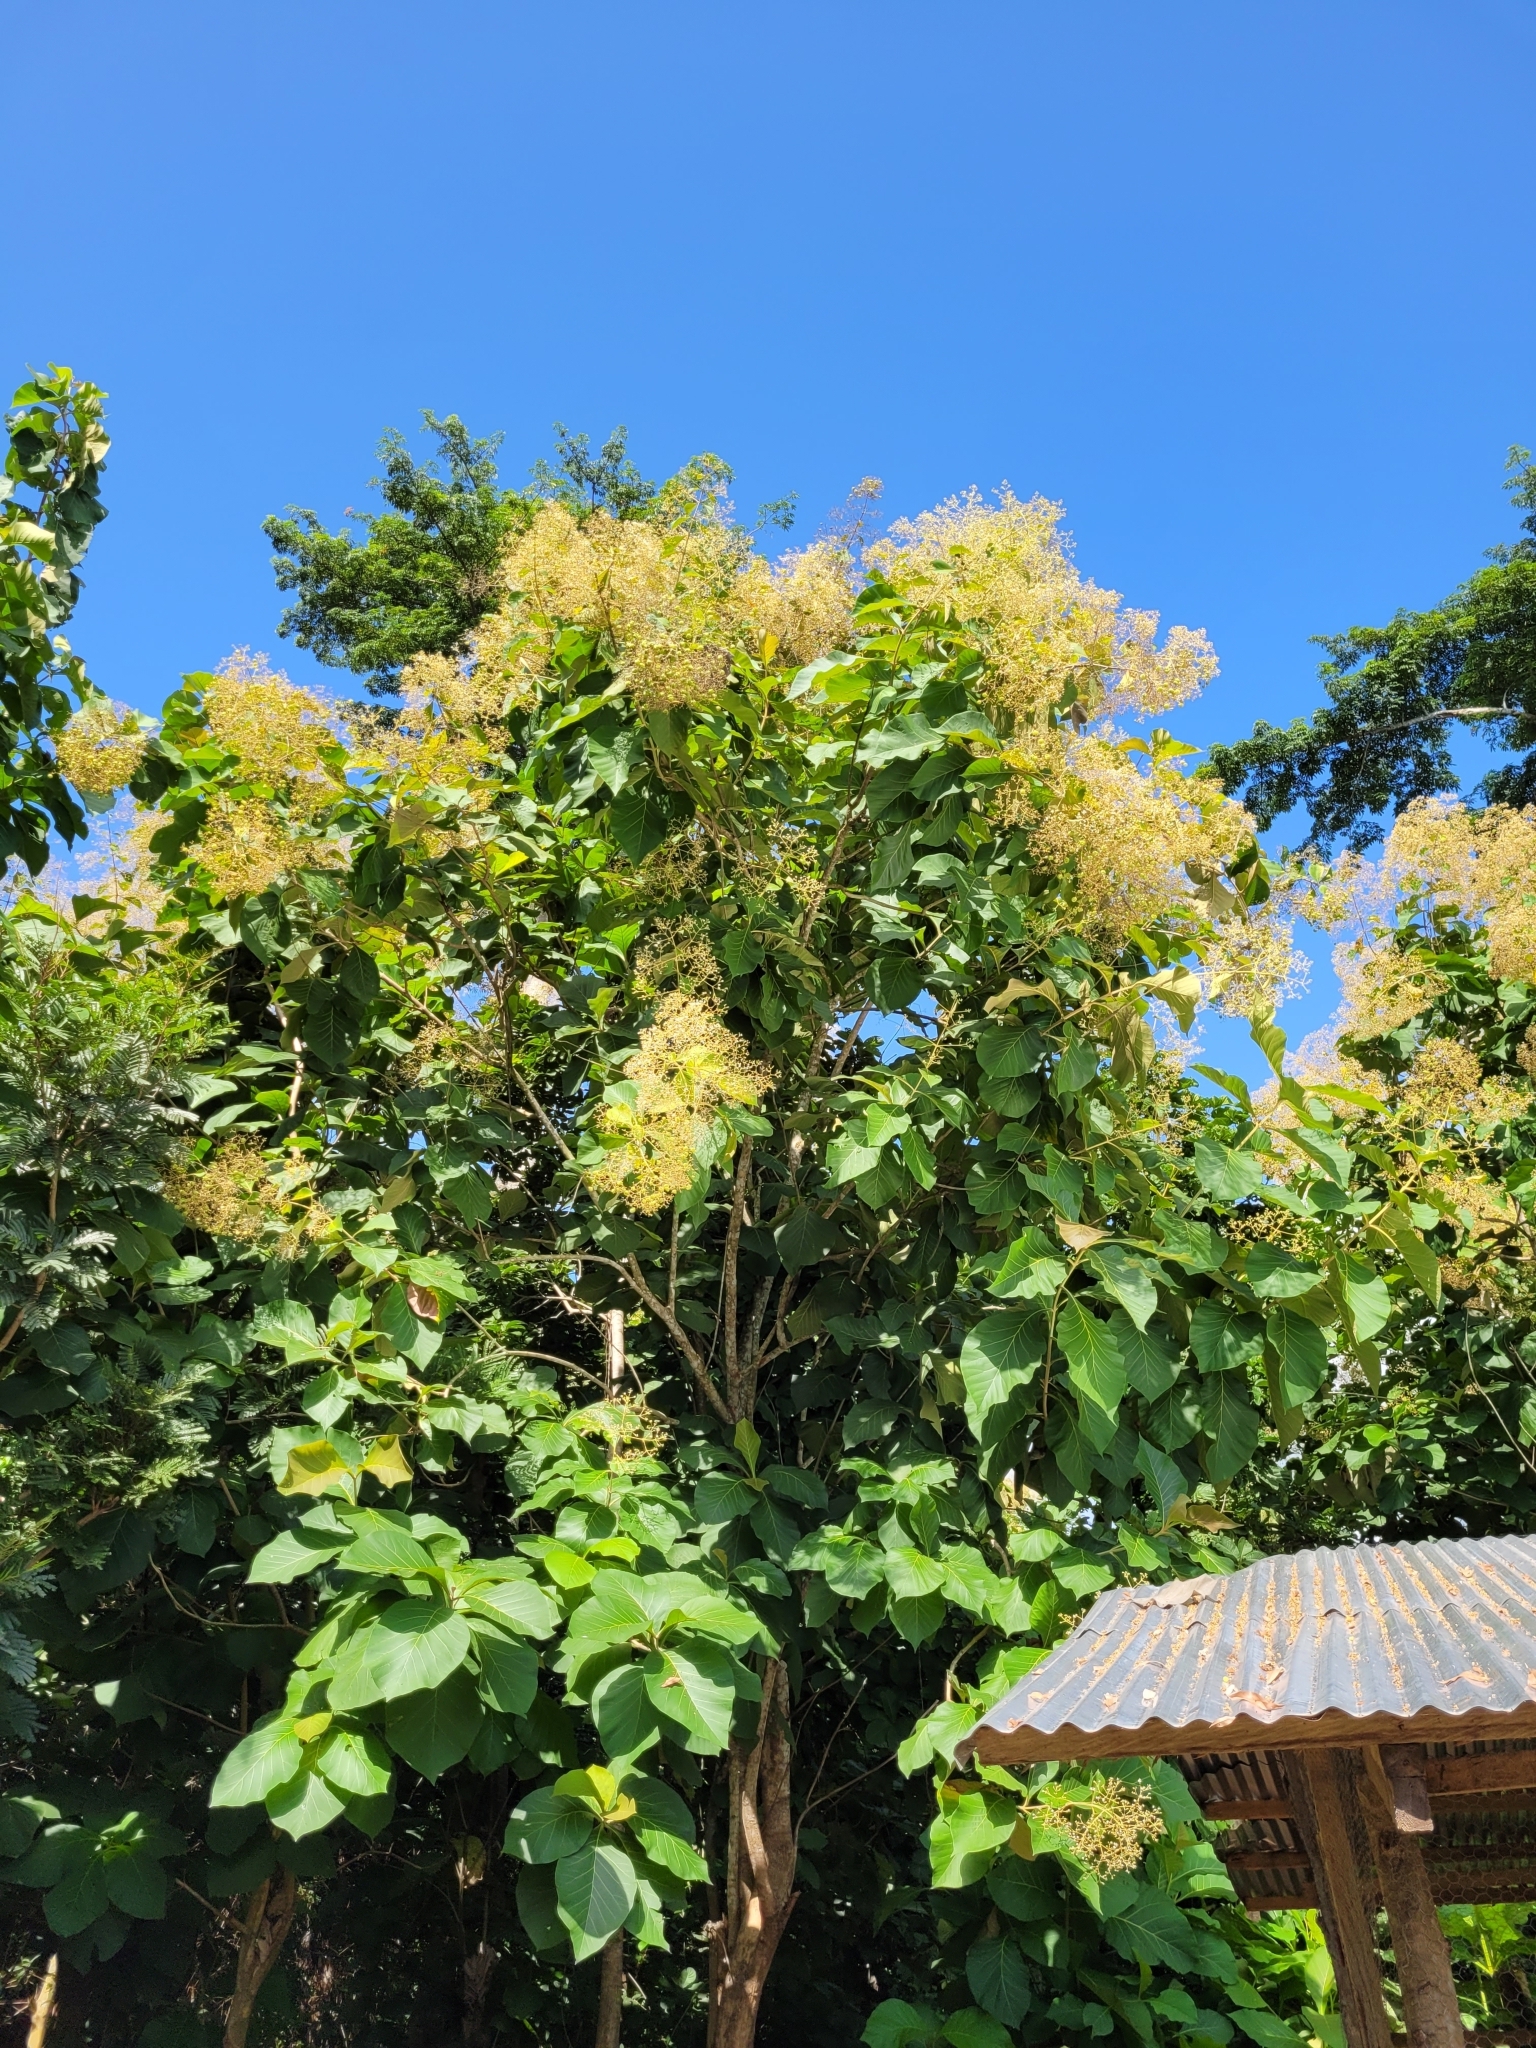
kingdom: Plantae
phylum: Tracheophyta
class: Magnoliopsida
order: Lamiales
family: Lamiaceae
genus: Tectona
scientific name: Tectona grandis
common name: Teak
